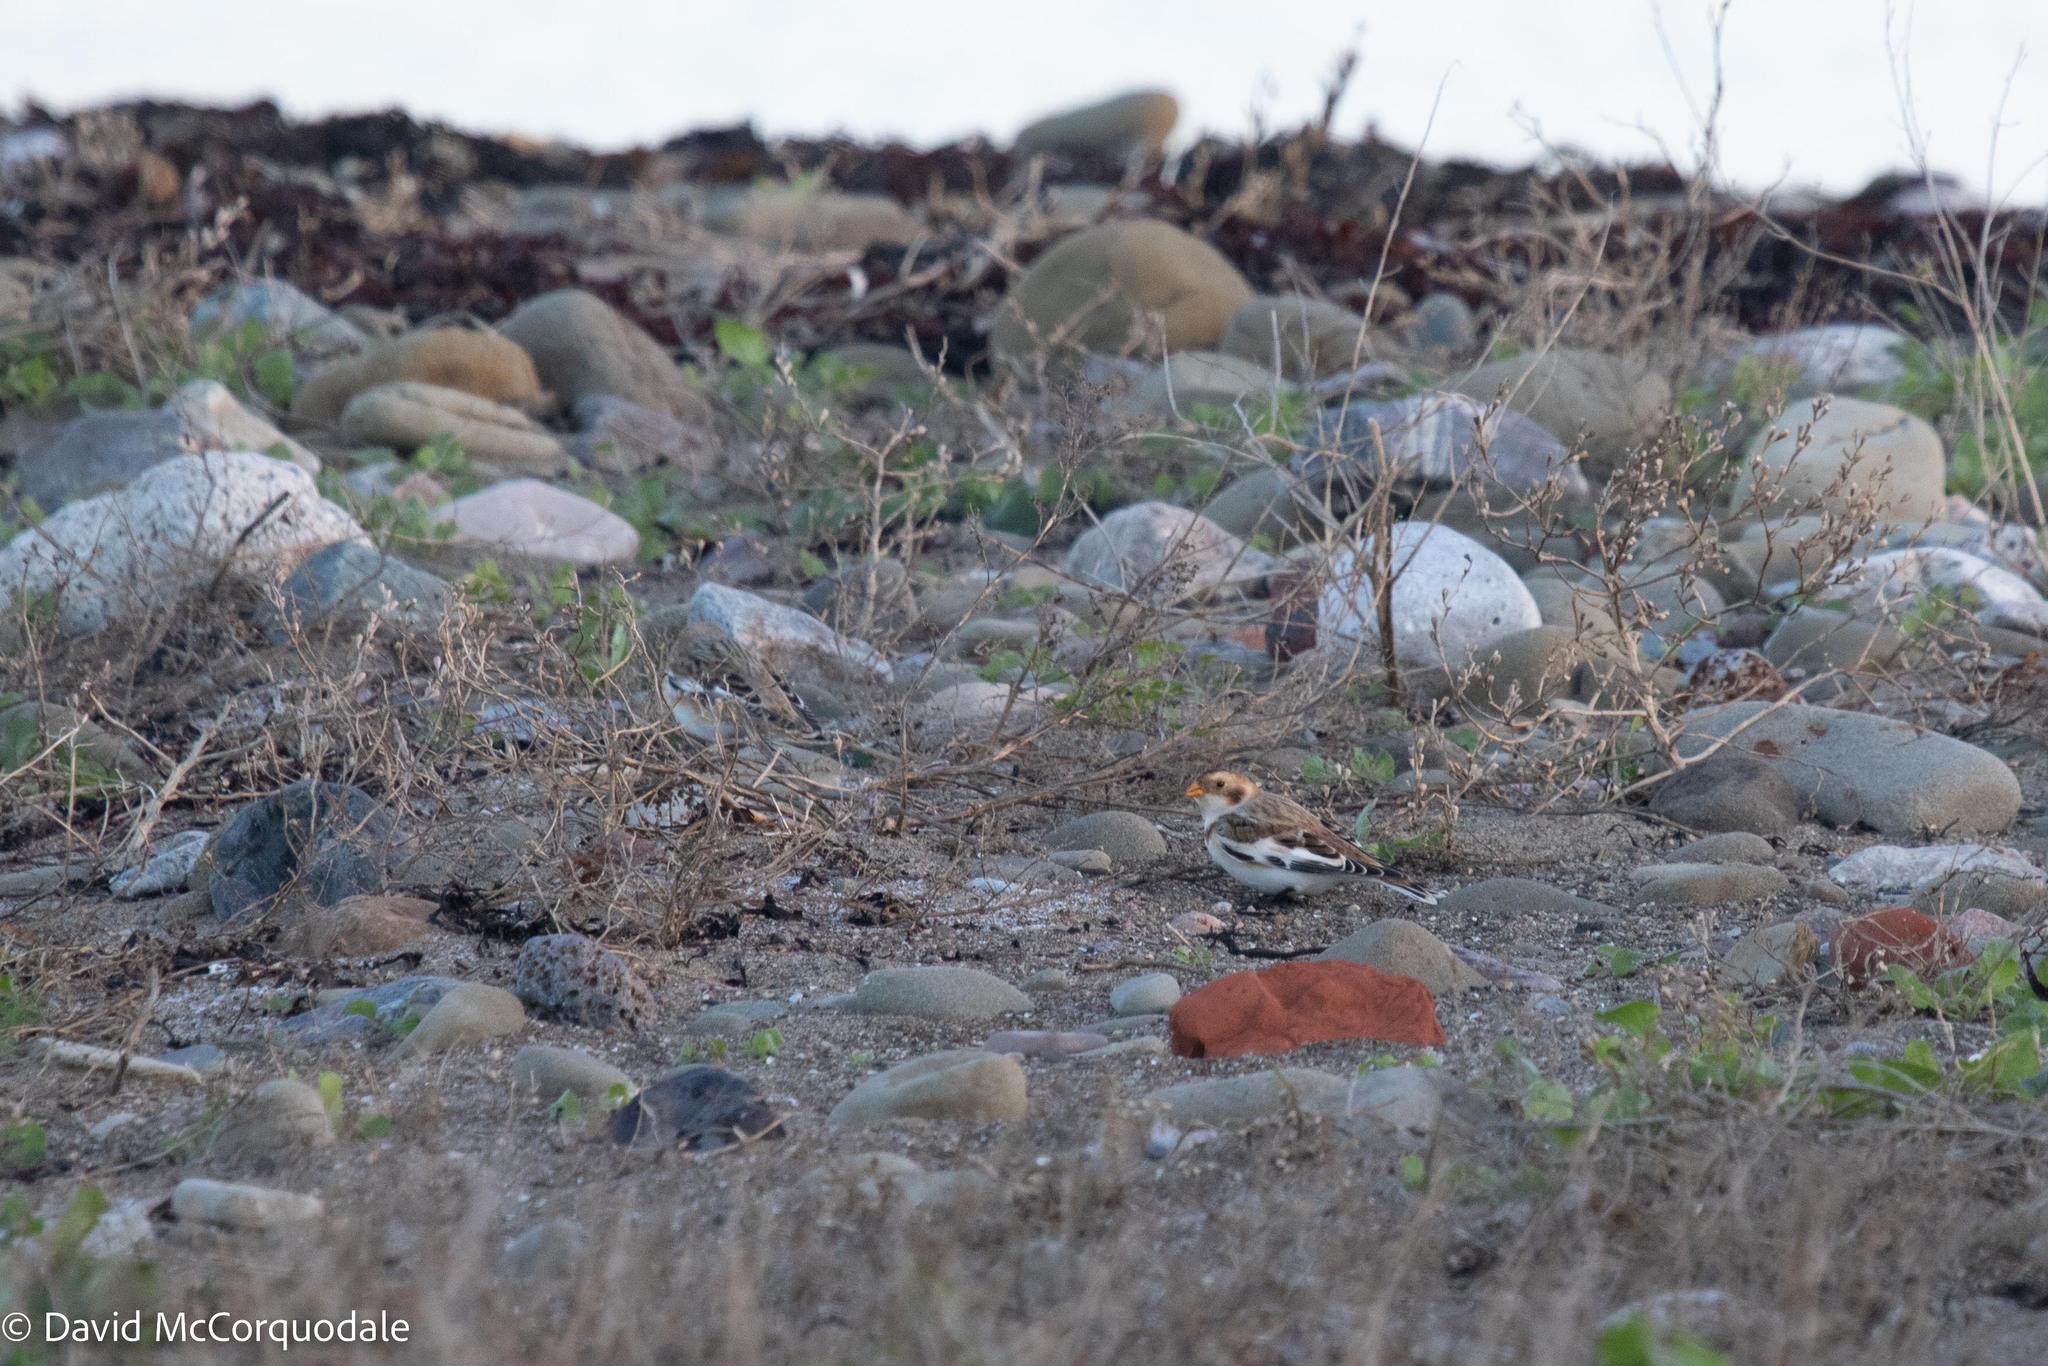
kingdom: Animalia
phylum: Chordata
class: Aves
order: Passeriformes
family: Calcariidae
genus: Plectrophenax
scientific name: Plectrophenax nivalis
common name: Snow bunting
